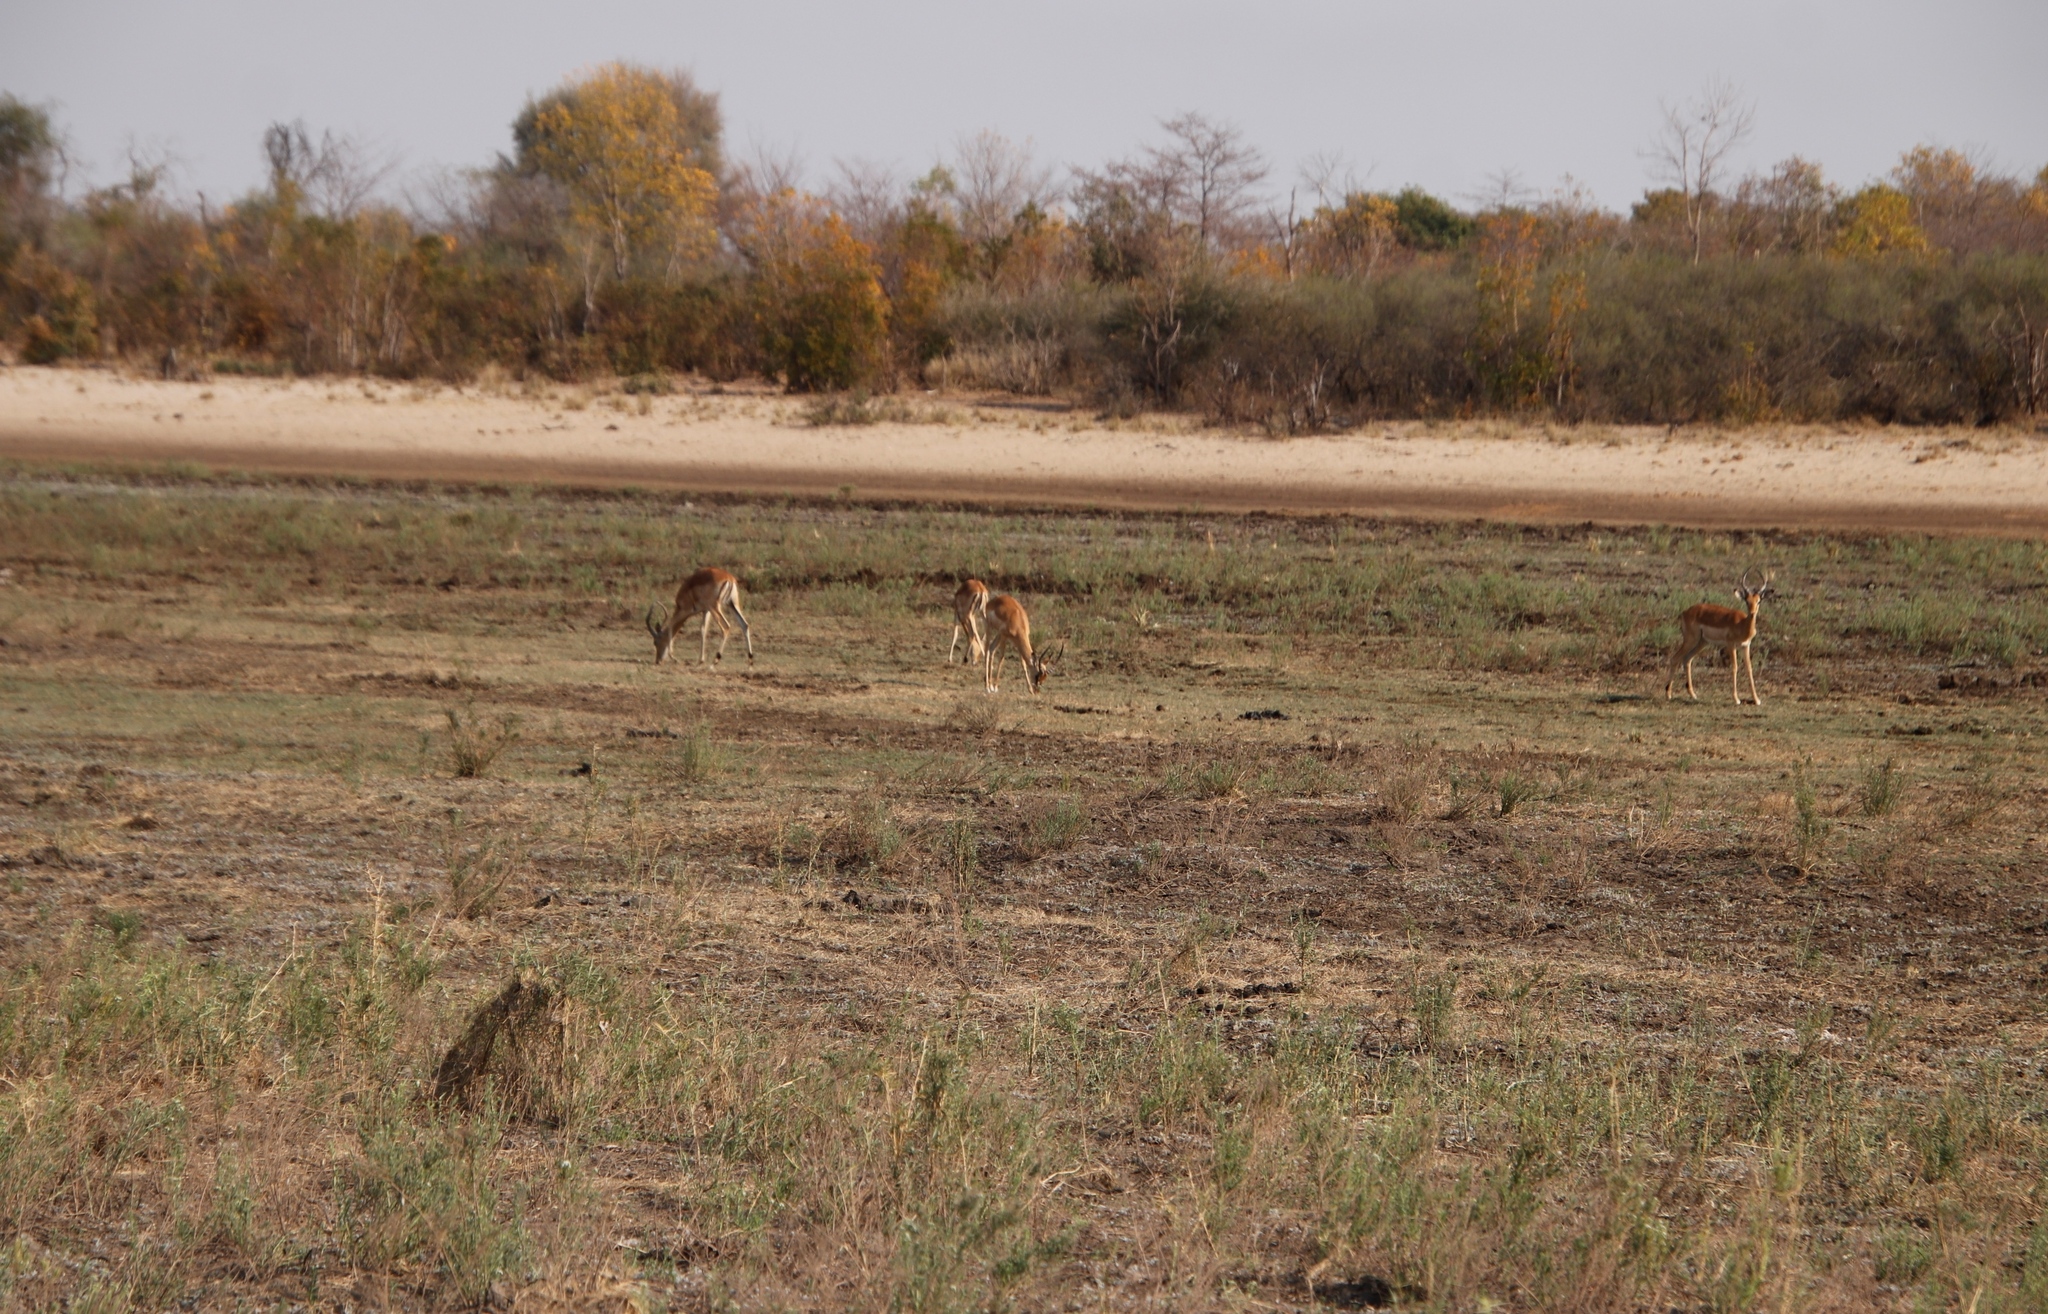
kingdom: Animalia
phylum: Chordata
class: Mammalia
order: Artiodactyla
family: Bovidae
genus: Aepyceros
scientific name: Aepyceros melampus
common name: Impala
